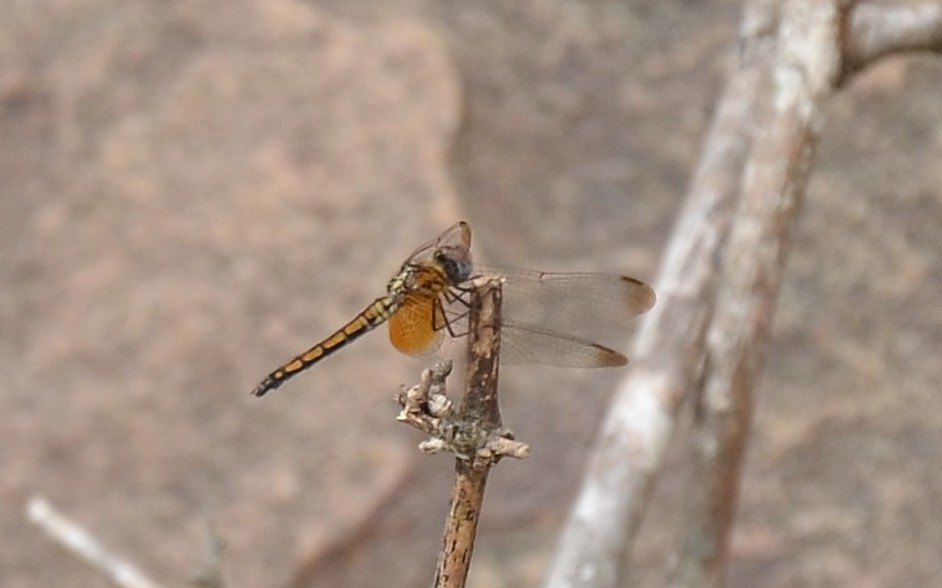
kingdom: Animalia
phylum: Arthropoda
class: Insecta
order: Odonata
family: Libellulidae
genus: Trithemis
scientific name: Trithemis aurora
